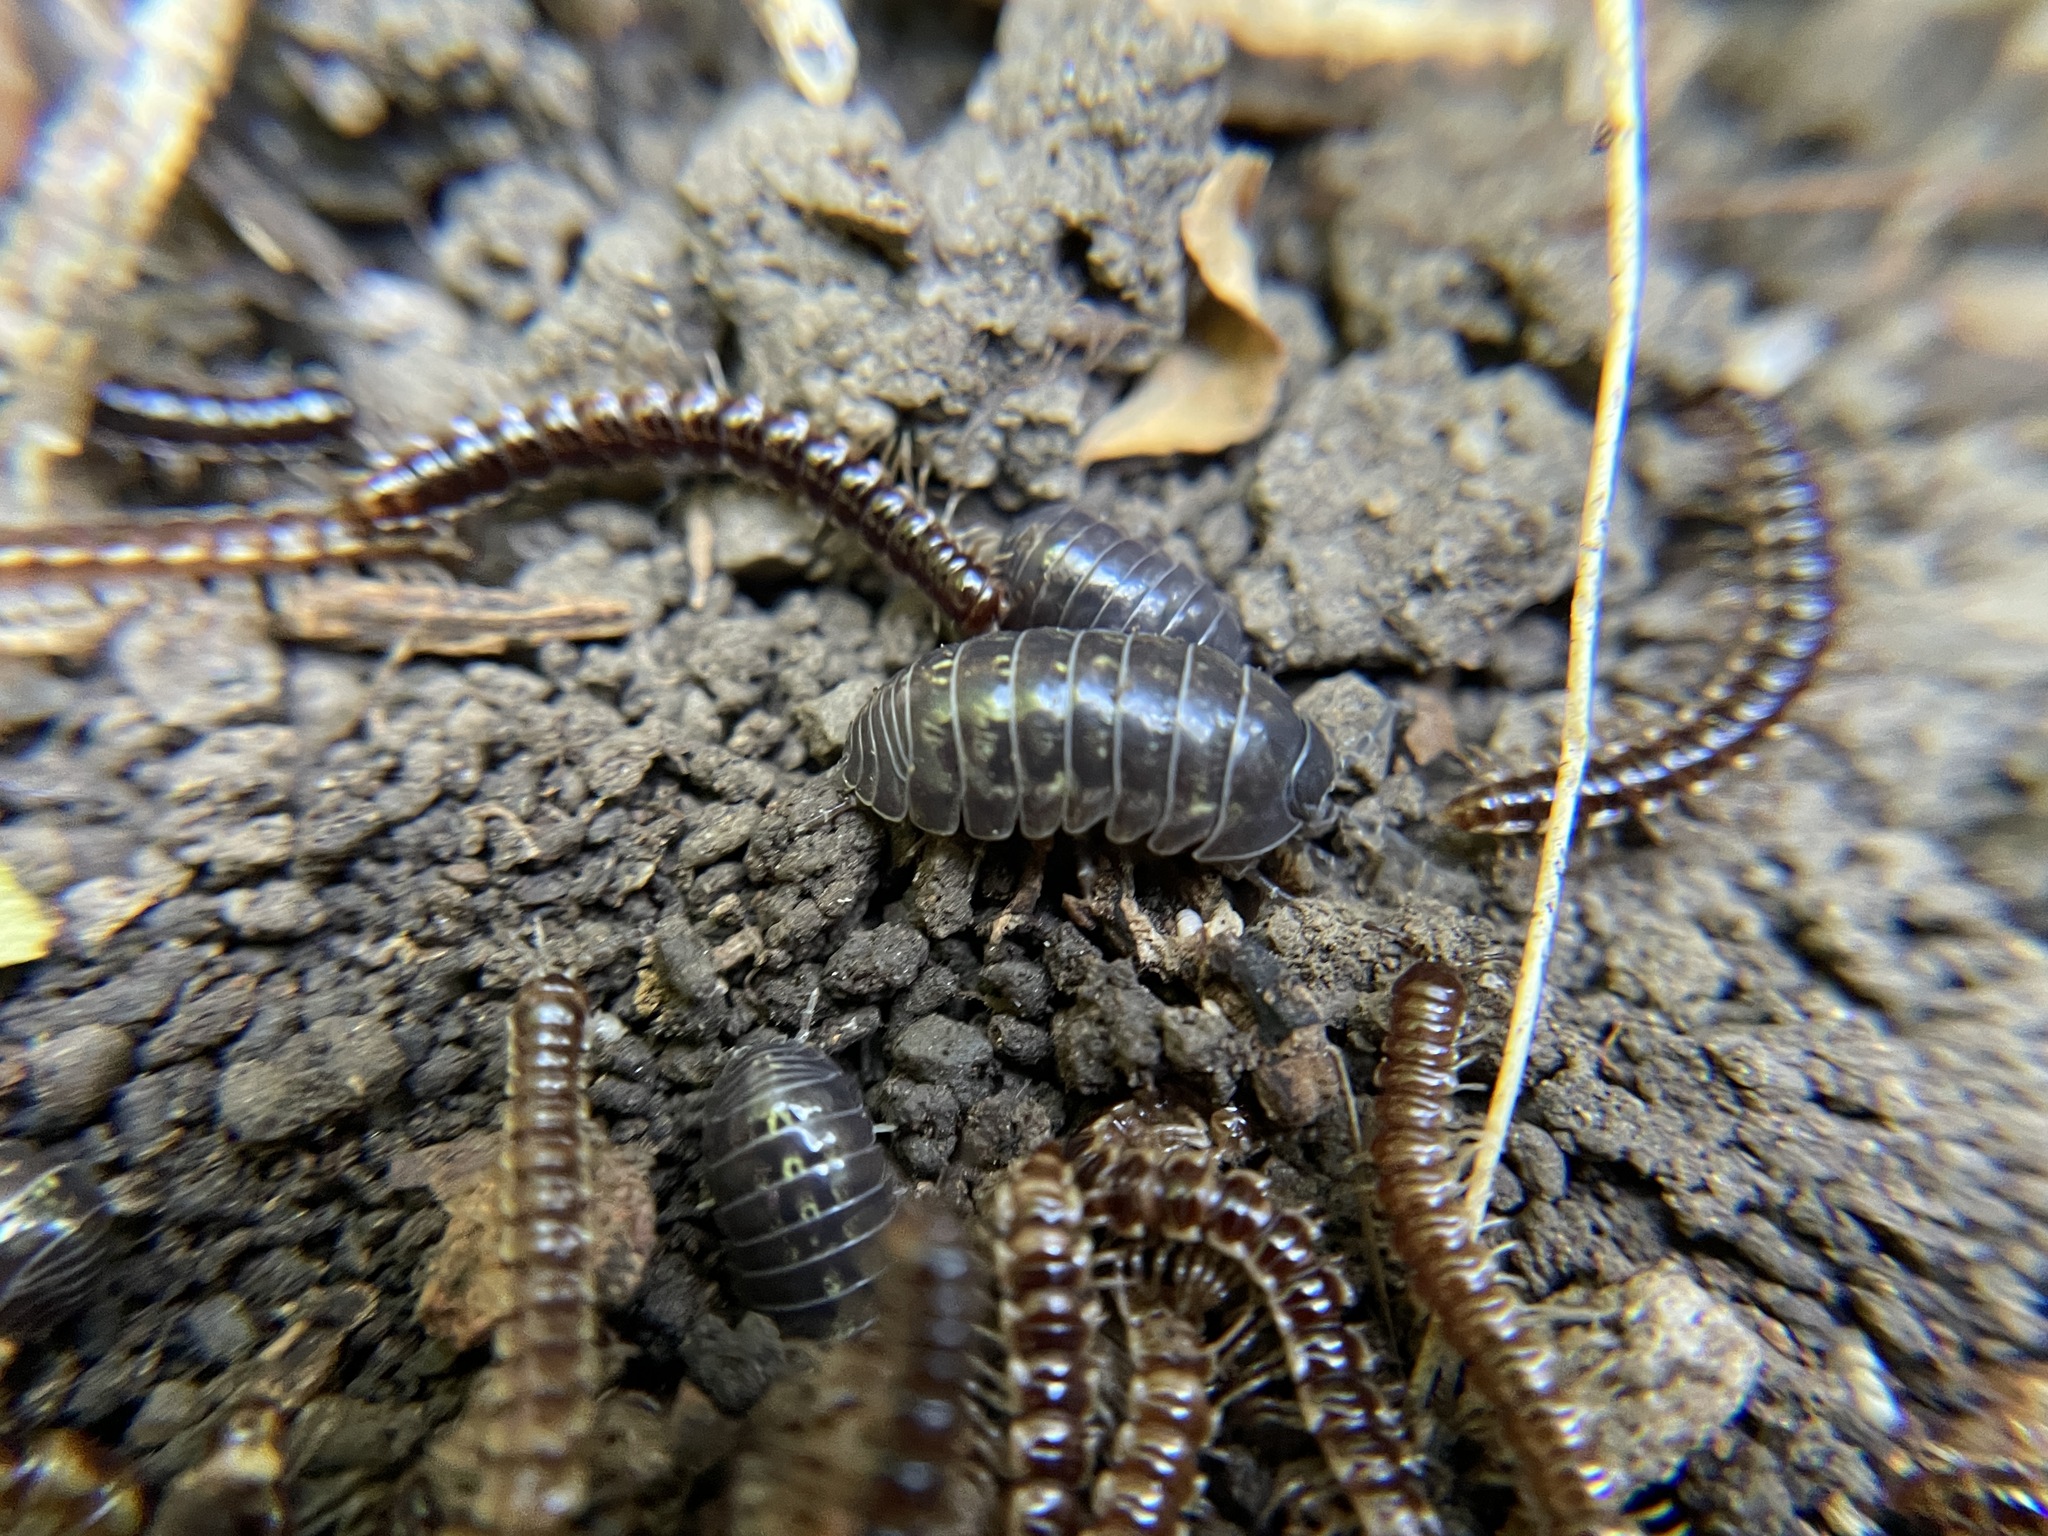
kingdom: Animalia
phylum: Arthropoda
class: Malacostraca
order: Isopoda
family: Armadillidiidae
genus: Armadillidium
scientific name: Armadillidium vulgare
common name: Common pill woodlouse
